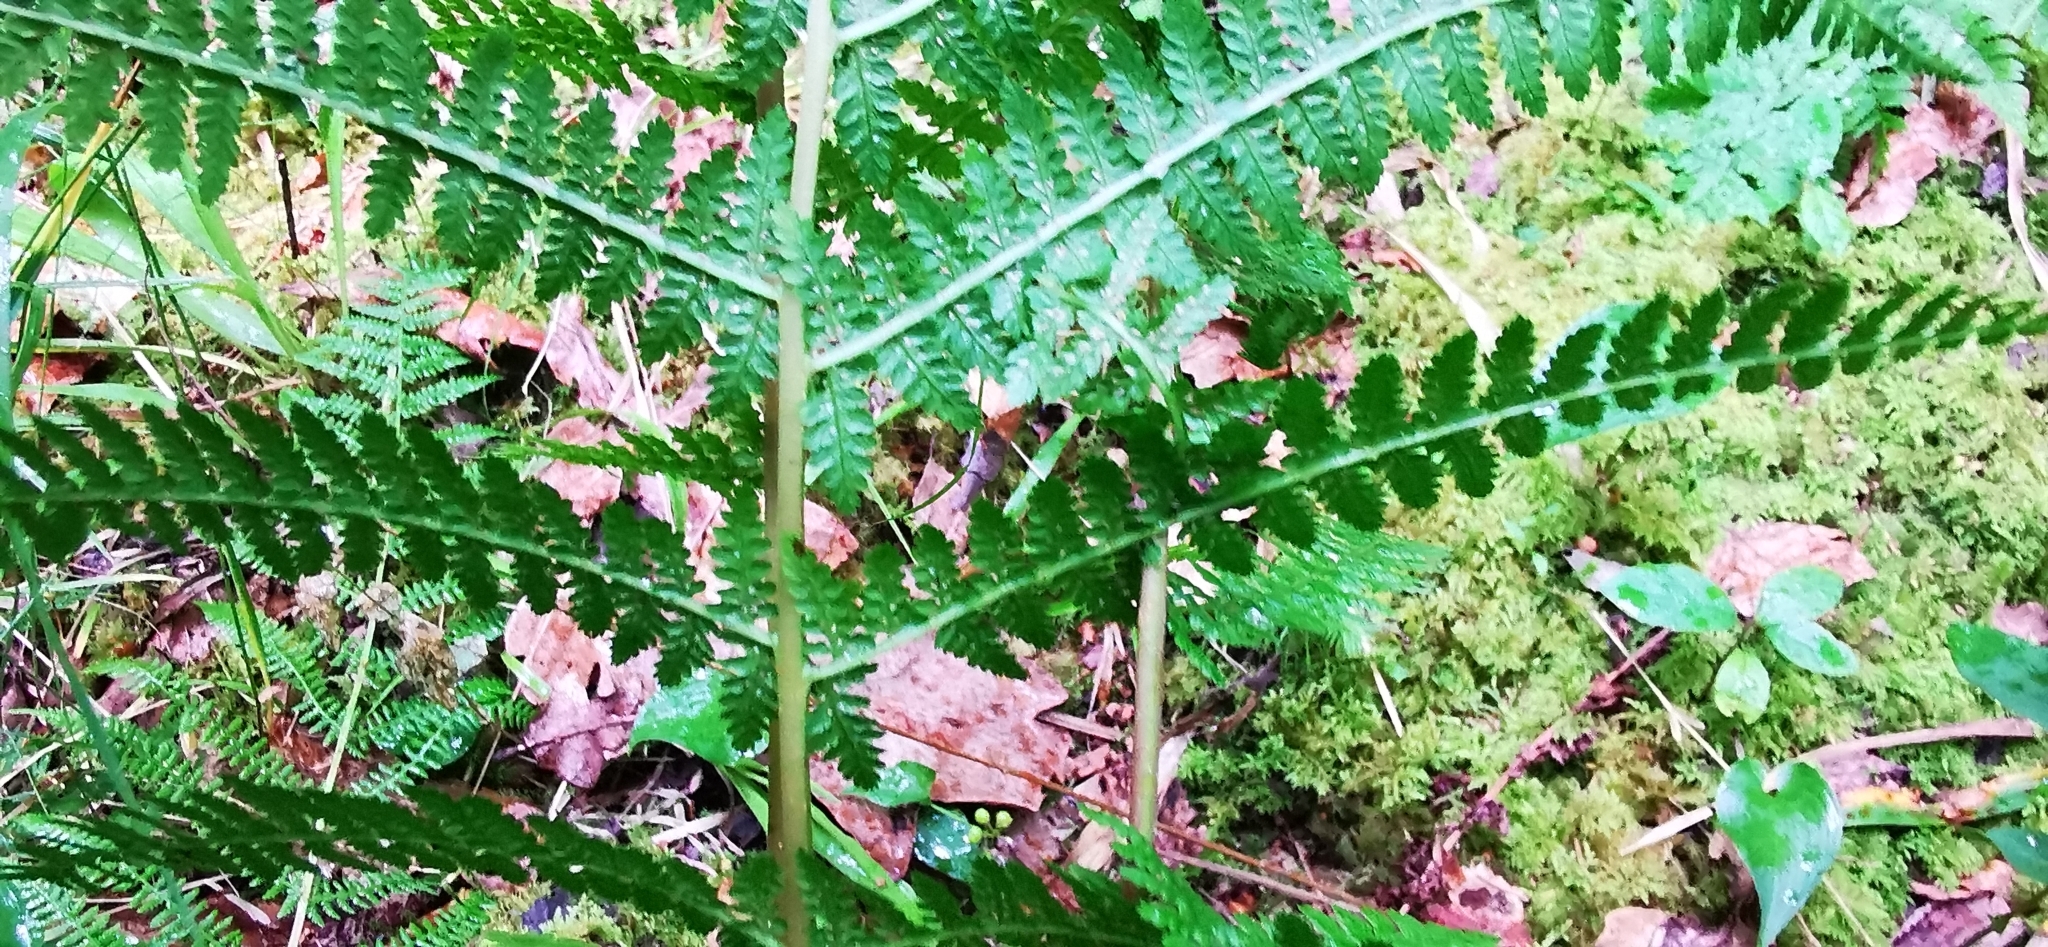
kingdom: Plantae
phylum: Tracheophyta
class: Polypodiopsida
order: Polypodiales
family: Athyriaceae
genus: Athyrium
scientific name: Athyrium filix-femina
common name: Lady fern
